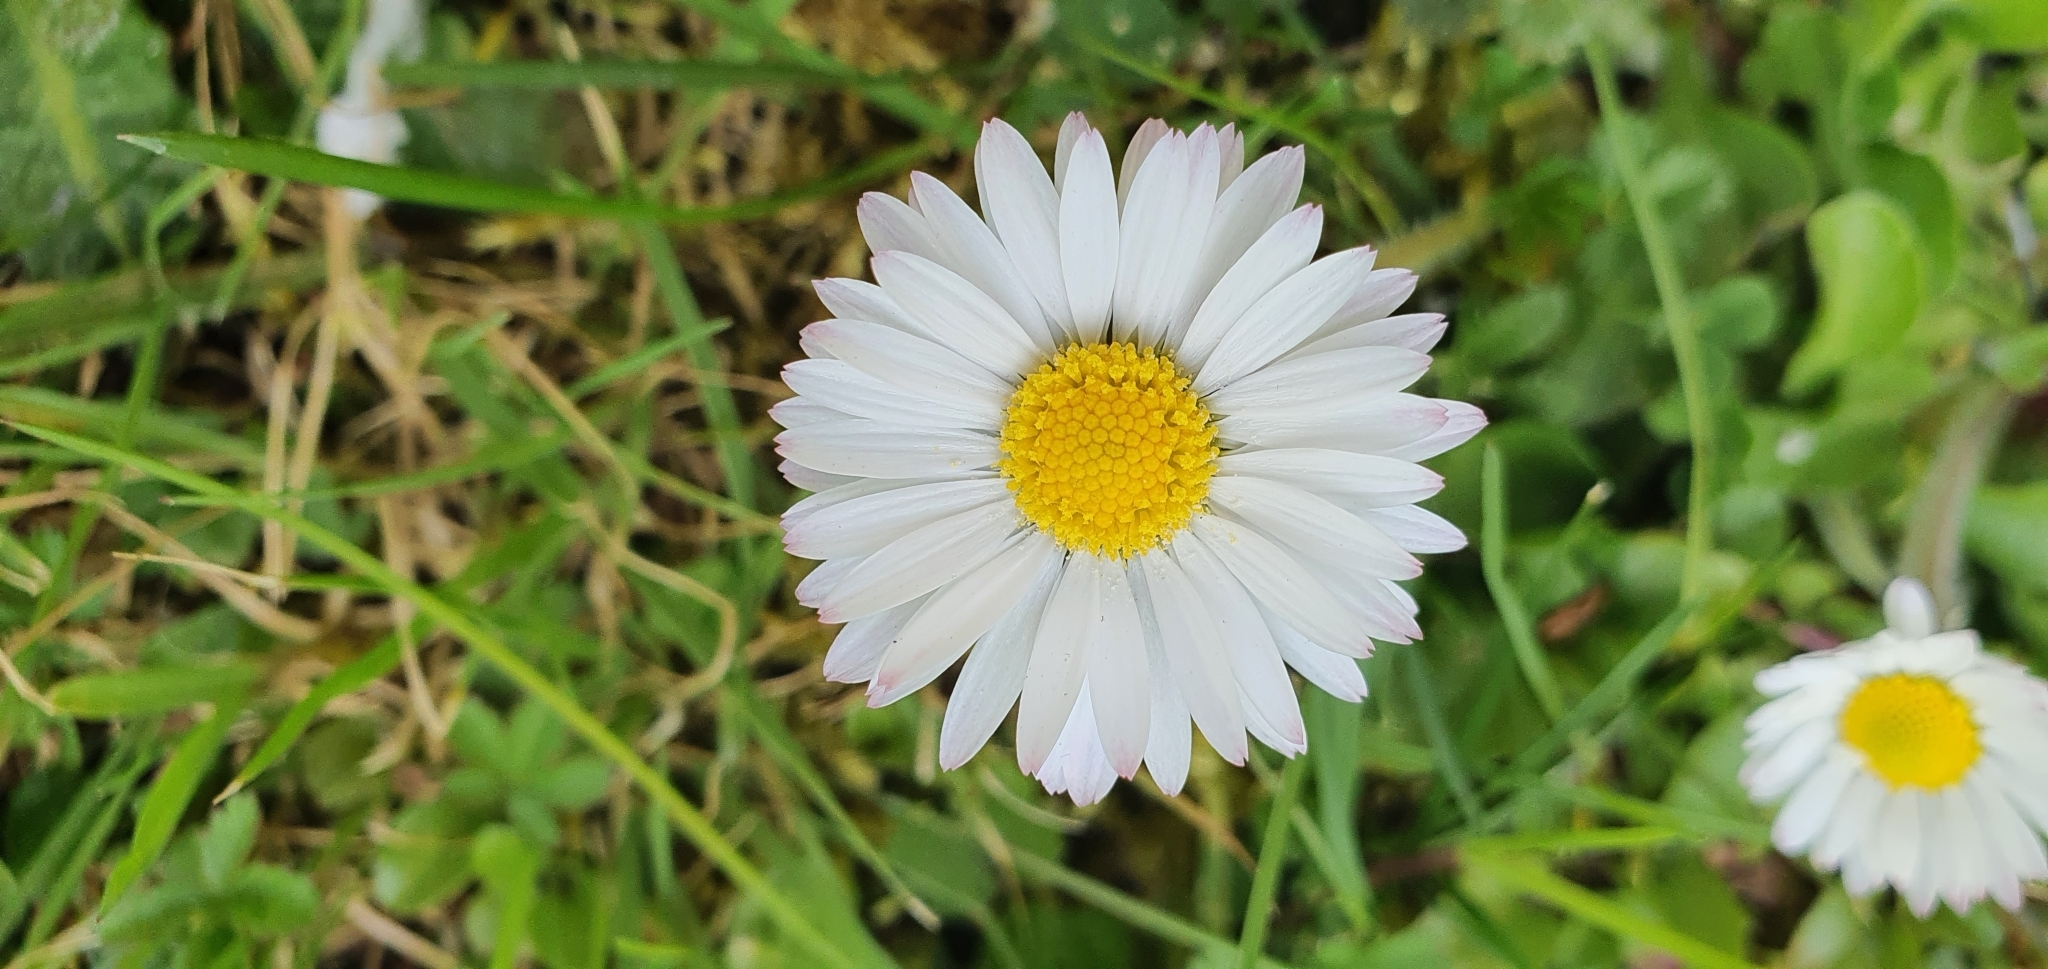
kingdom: Plantae
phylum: Tracheophyta
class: Magnoliopsida
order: Asterales
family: Asteraceae
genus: Bellis
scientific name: Bellis perennis
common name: Lawndaisy
